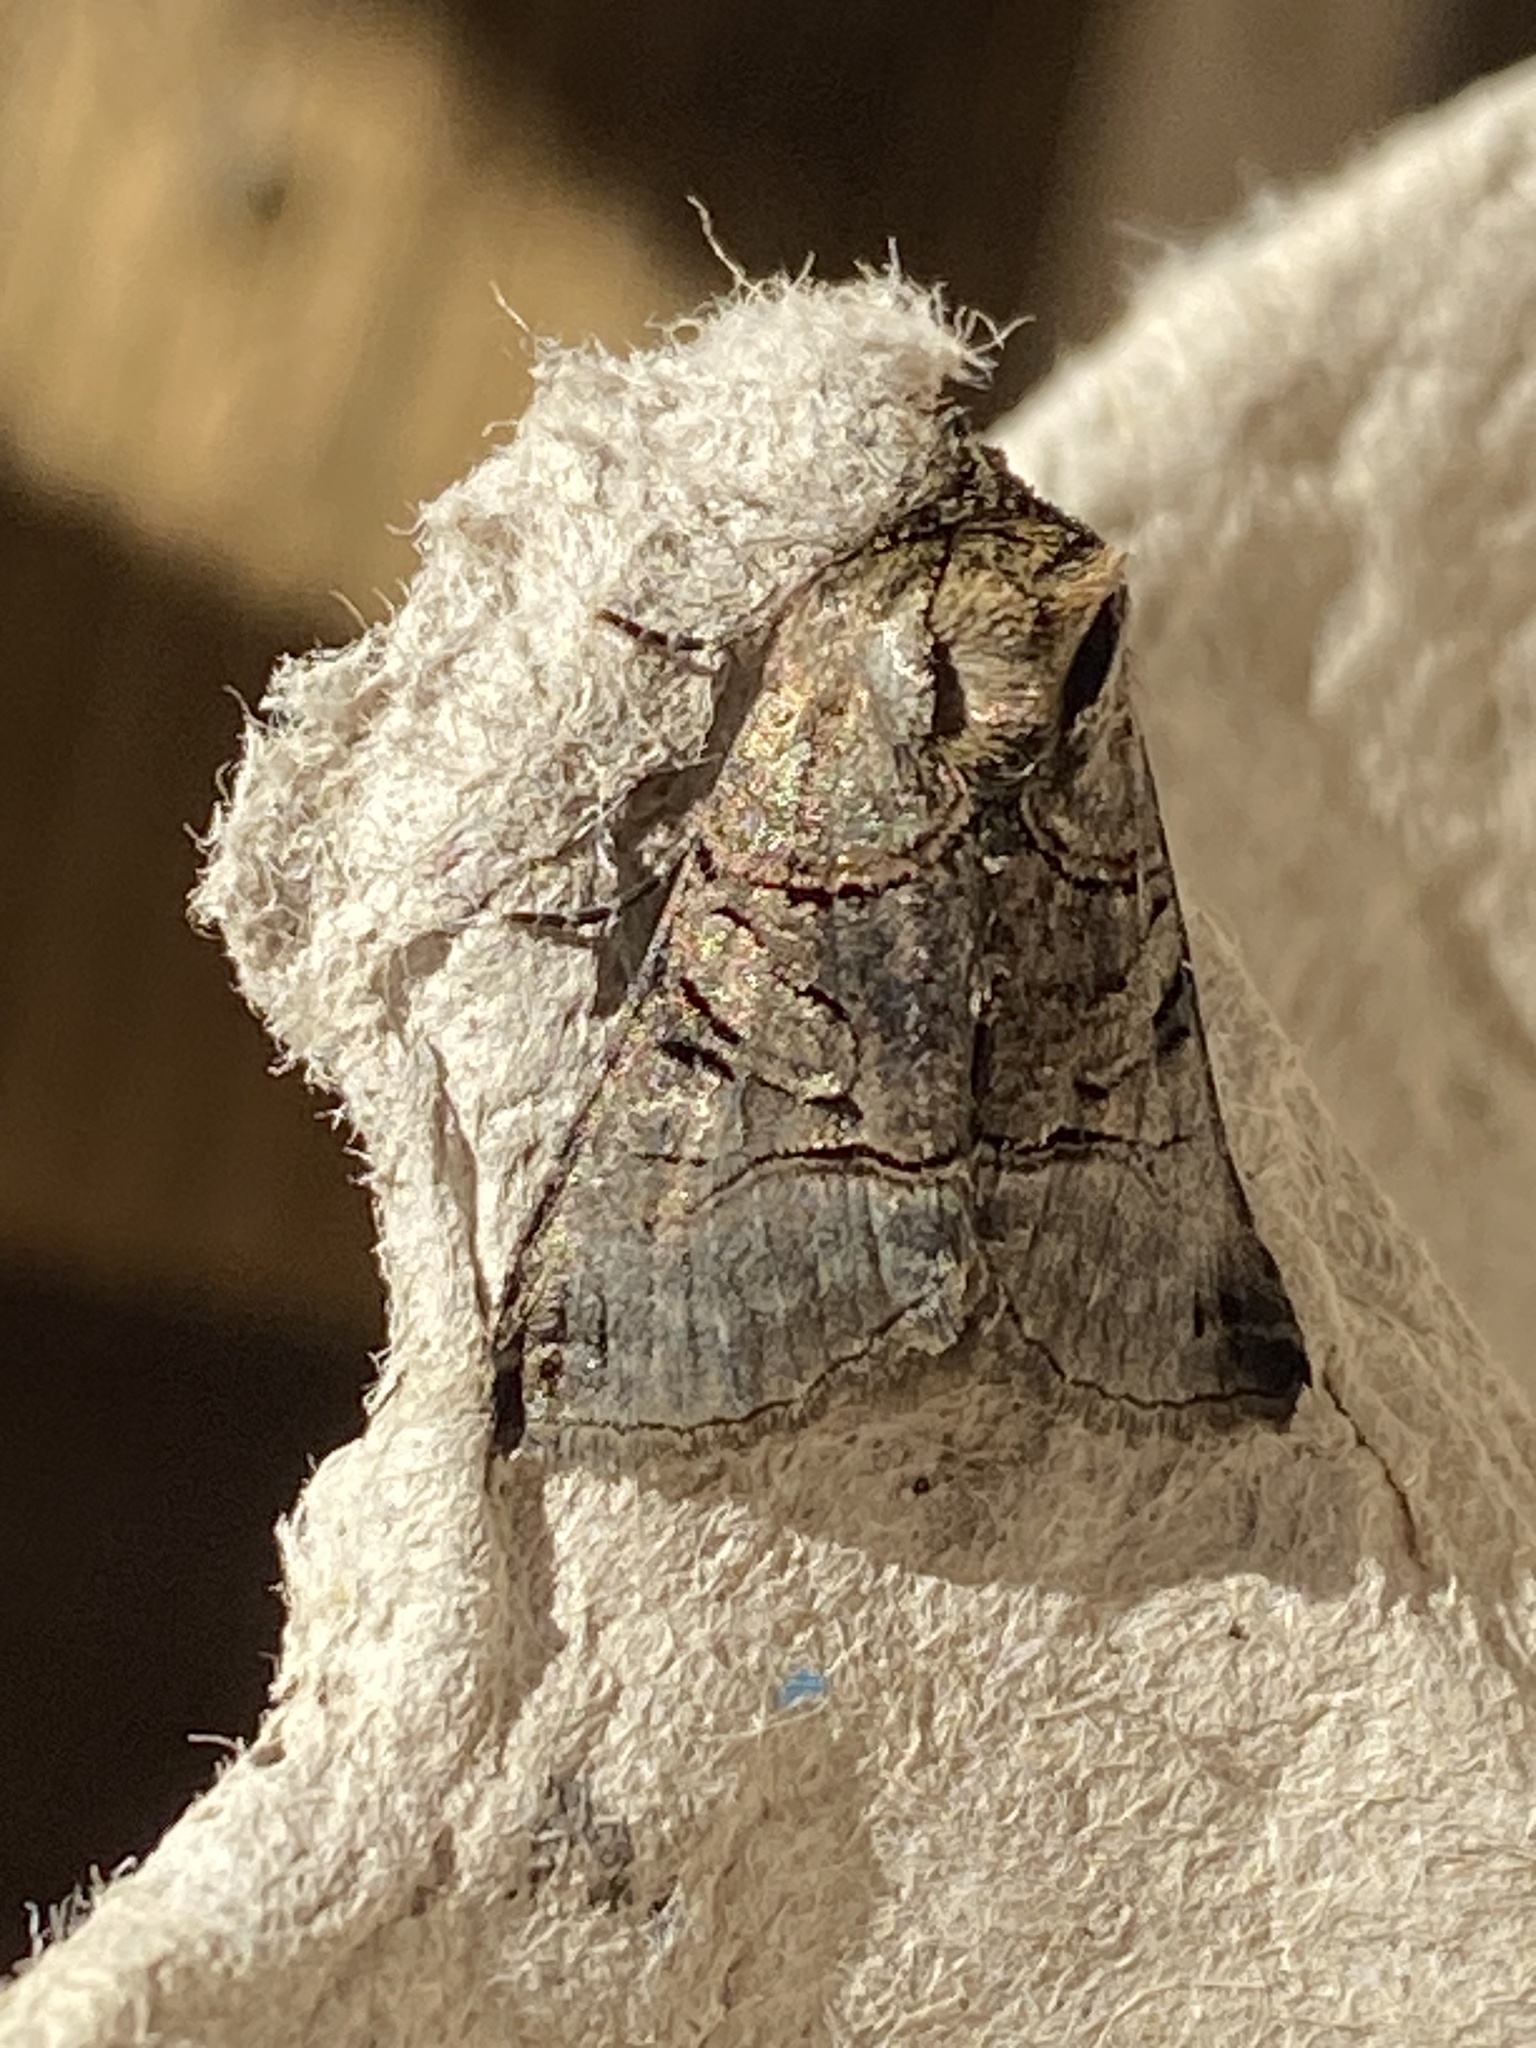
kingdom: Animalia
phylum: Arthropoda
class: Insecta
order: Lepidoptera
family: Noctuidae
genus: Abrostola
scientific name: Abrostola tripartita
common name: Spectacle
